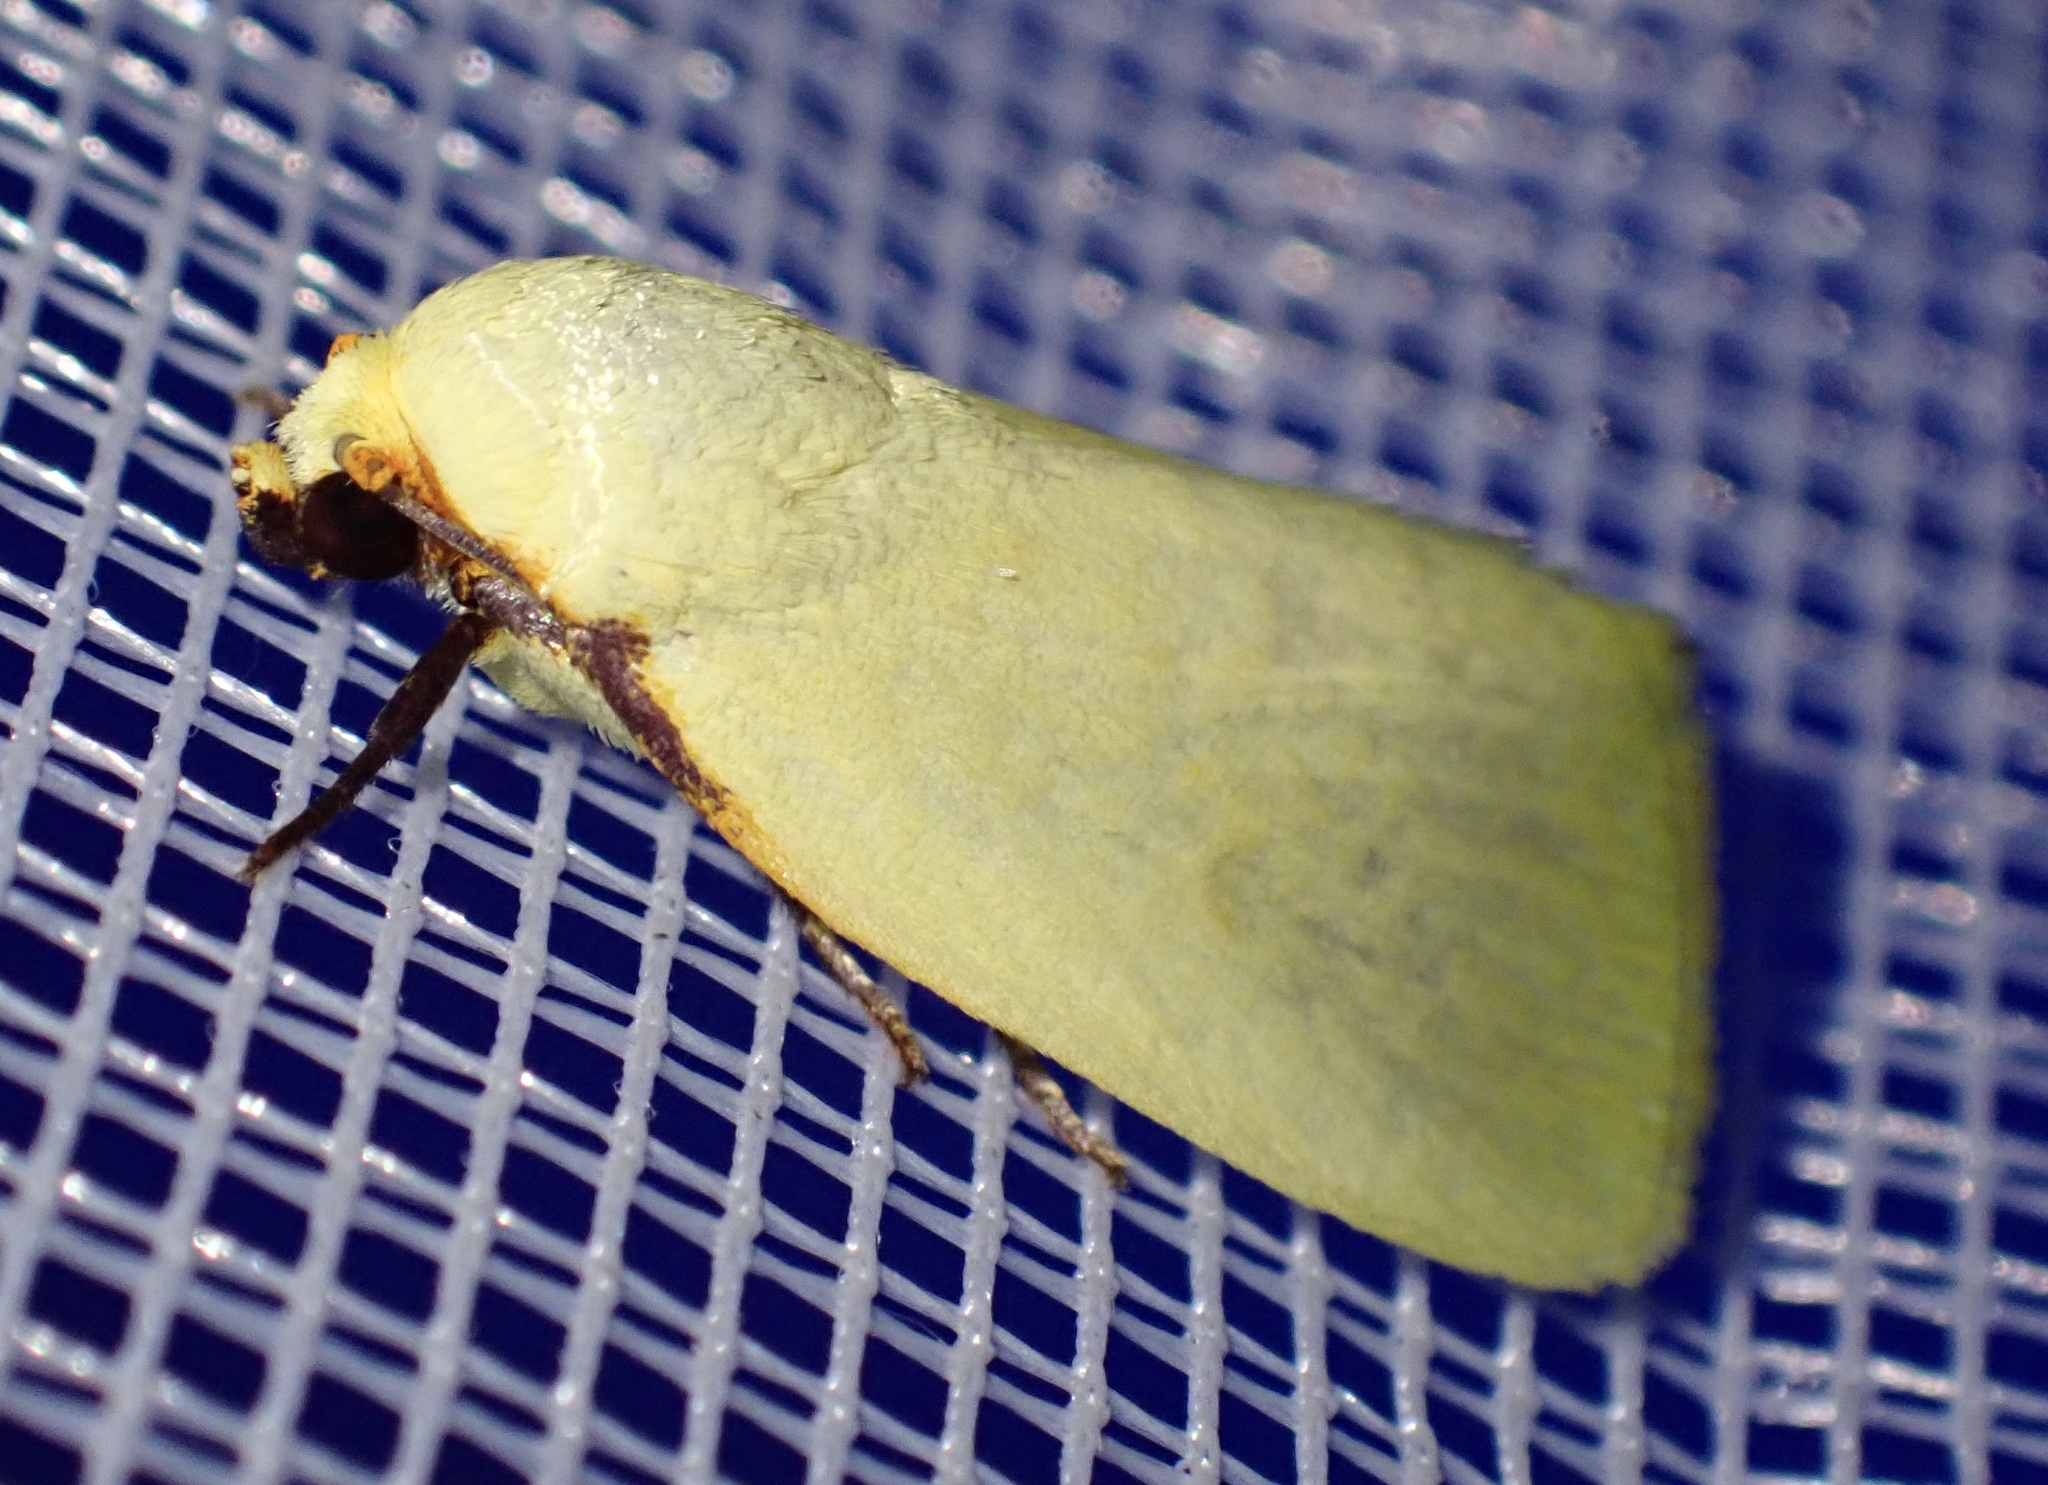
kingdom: Animalia
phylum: Arthropoda
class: Insecta
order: Lepidoptera
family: Nolidae
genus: Earias
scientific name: Earias uniplaga
